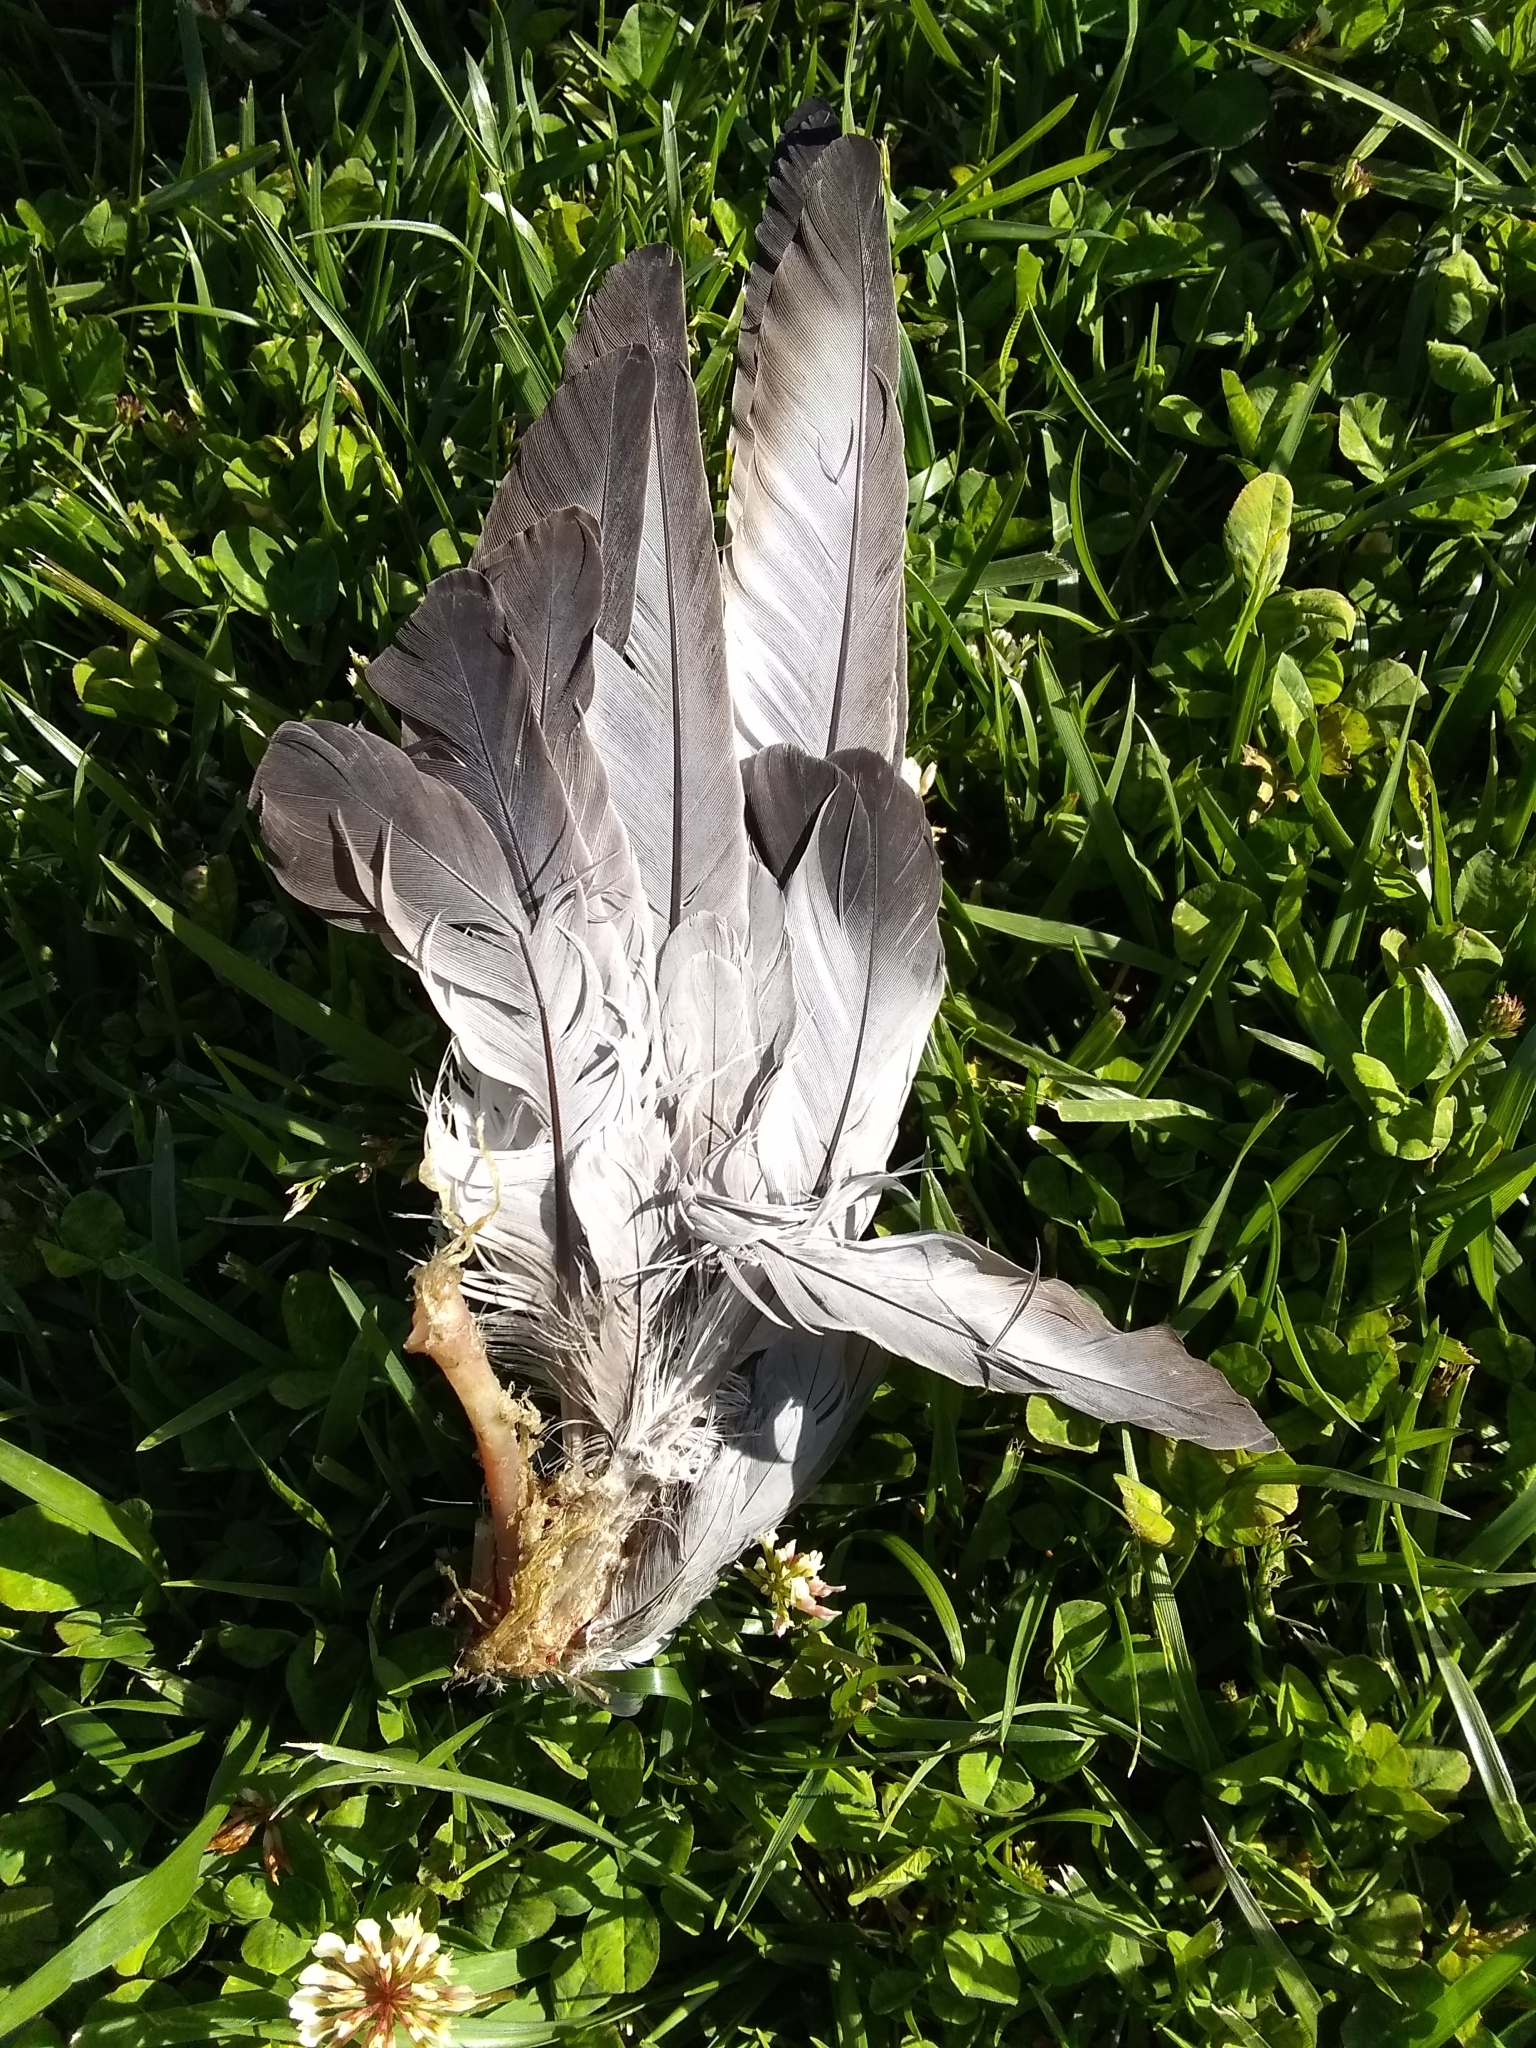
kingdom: Animalia
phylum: Chordata
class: Aves
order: Columbiformes
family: Columbidae
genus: Columba
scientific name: Columba livia
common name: Rock pigeon
